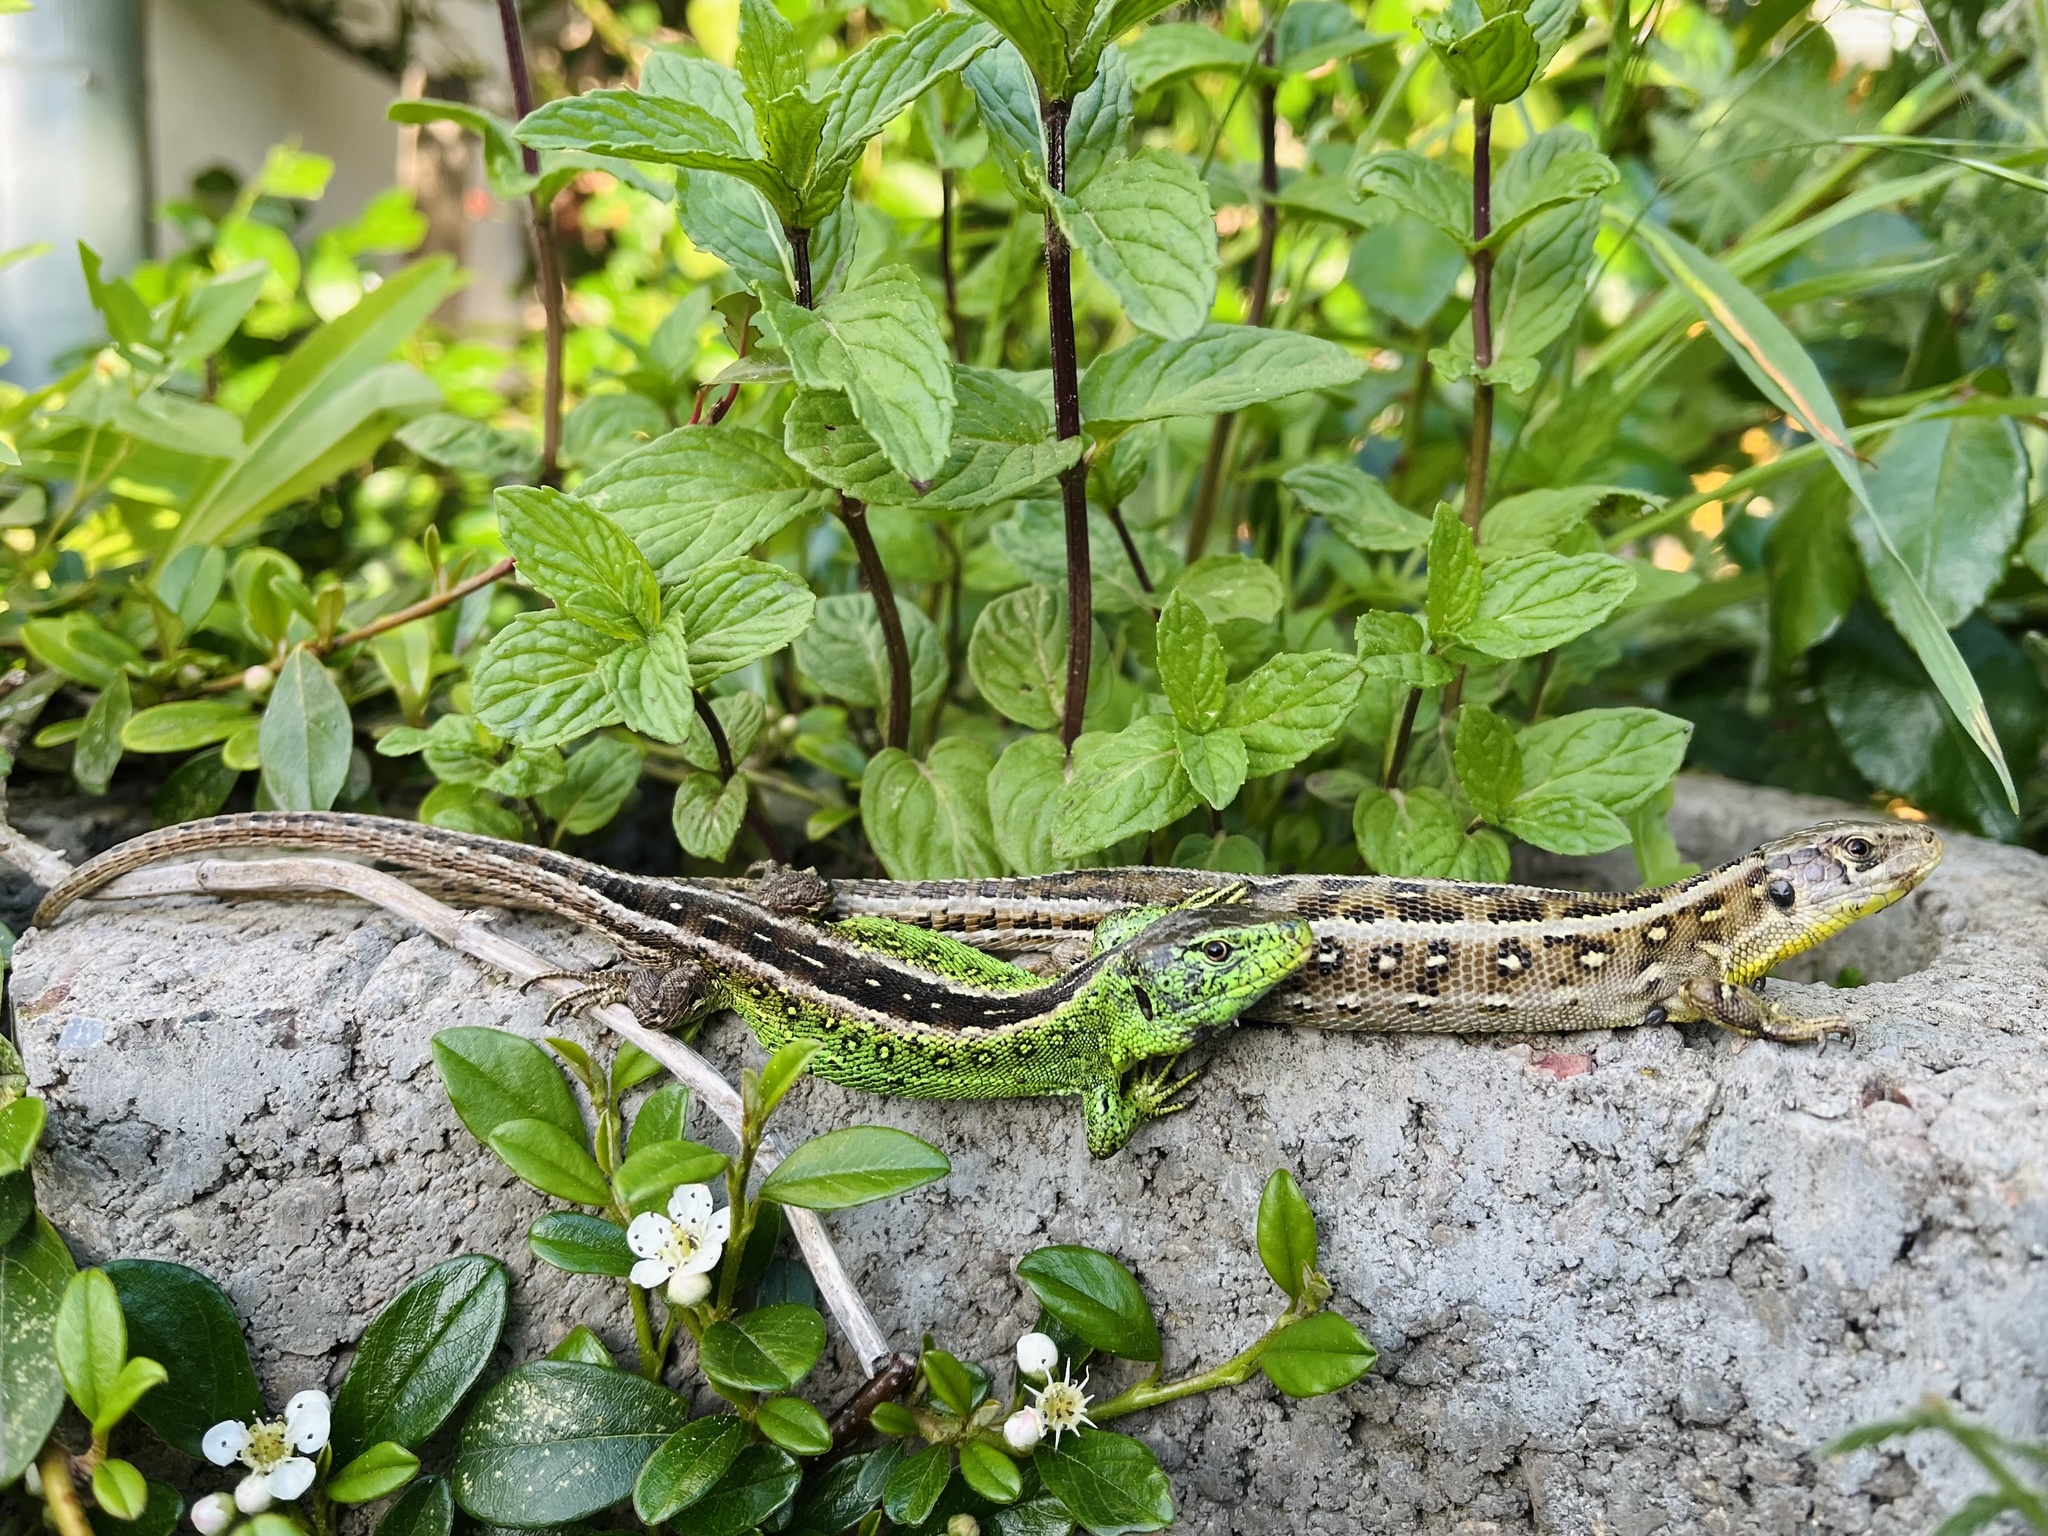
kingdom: Animalia
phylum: Chordata
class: Squamata
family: Lacertidae
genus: Lacerta
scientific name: Lacerta agilis
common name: Sand lizard
